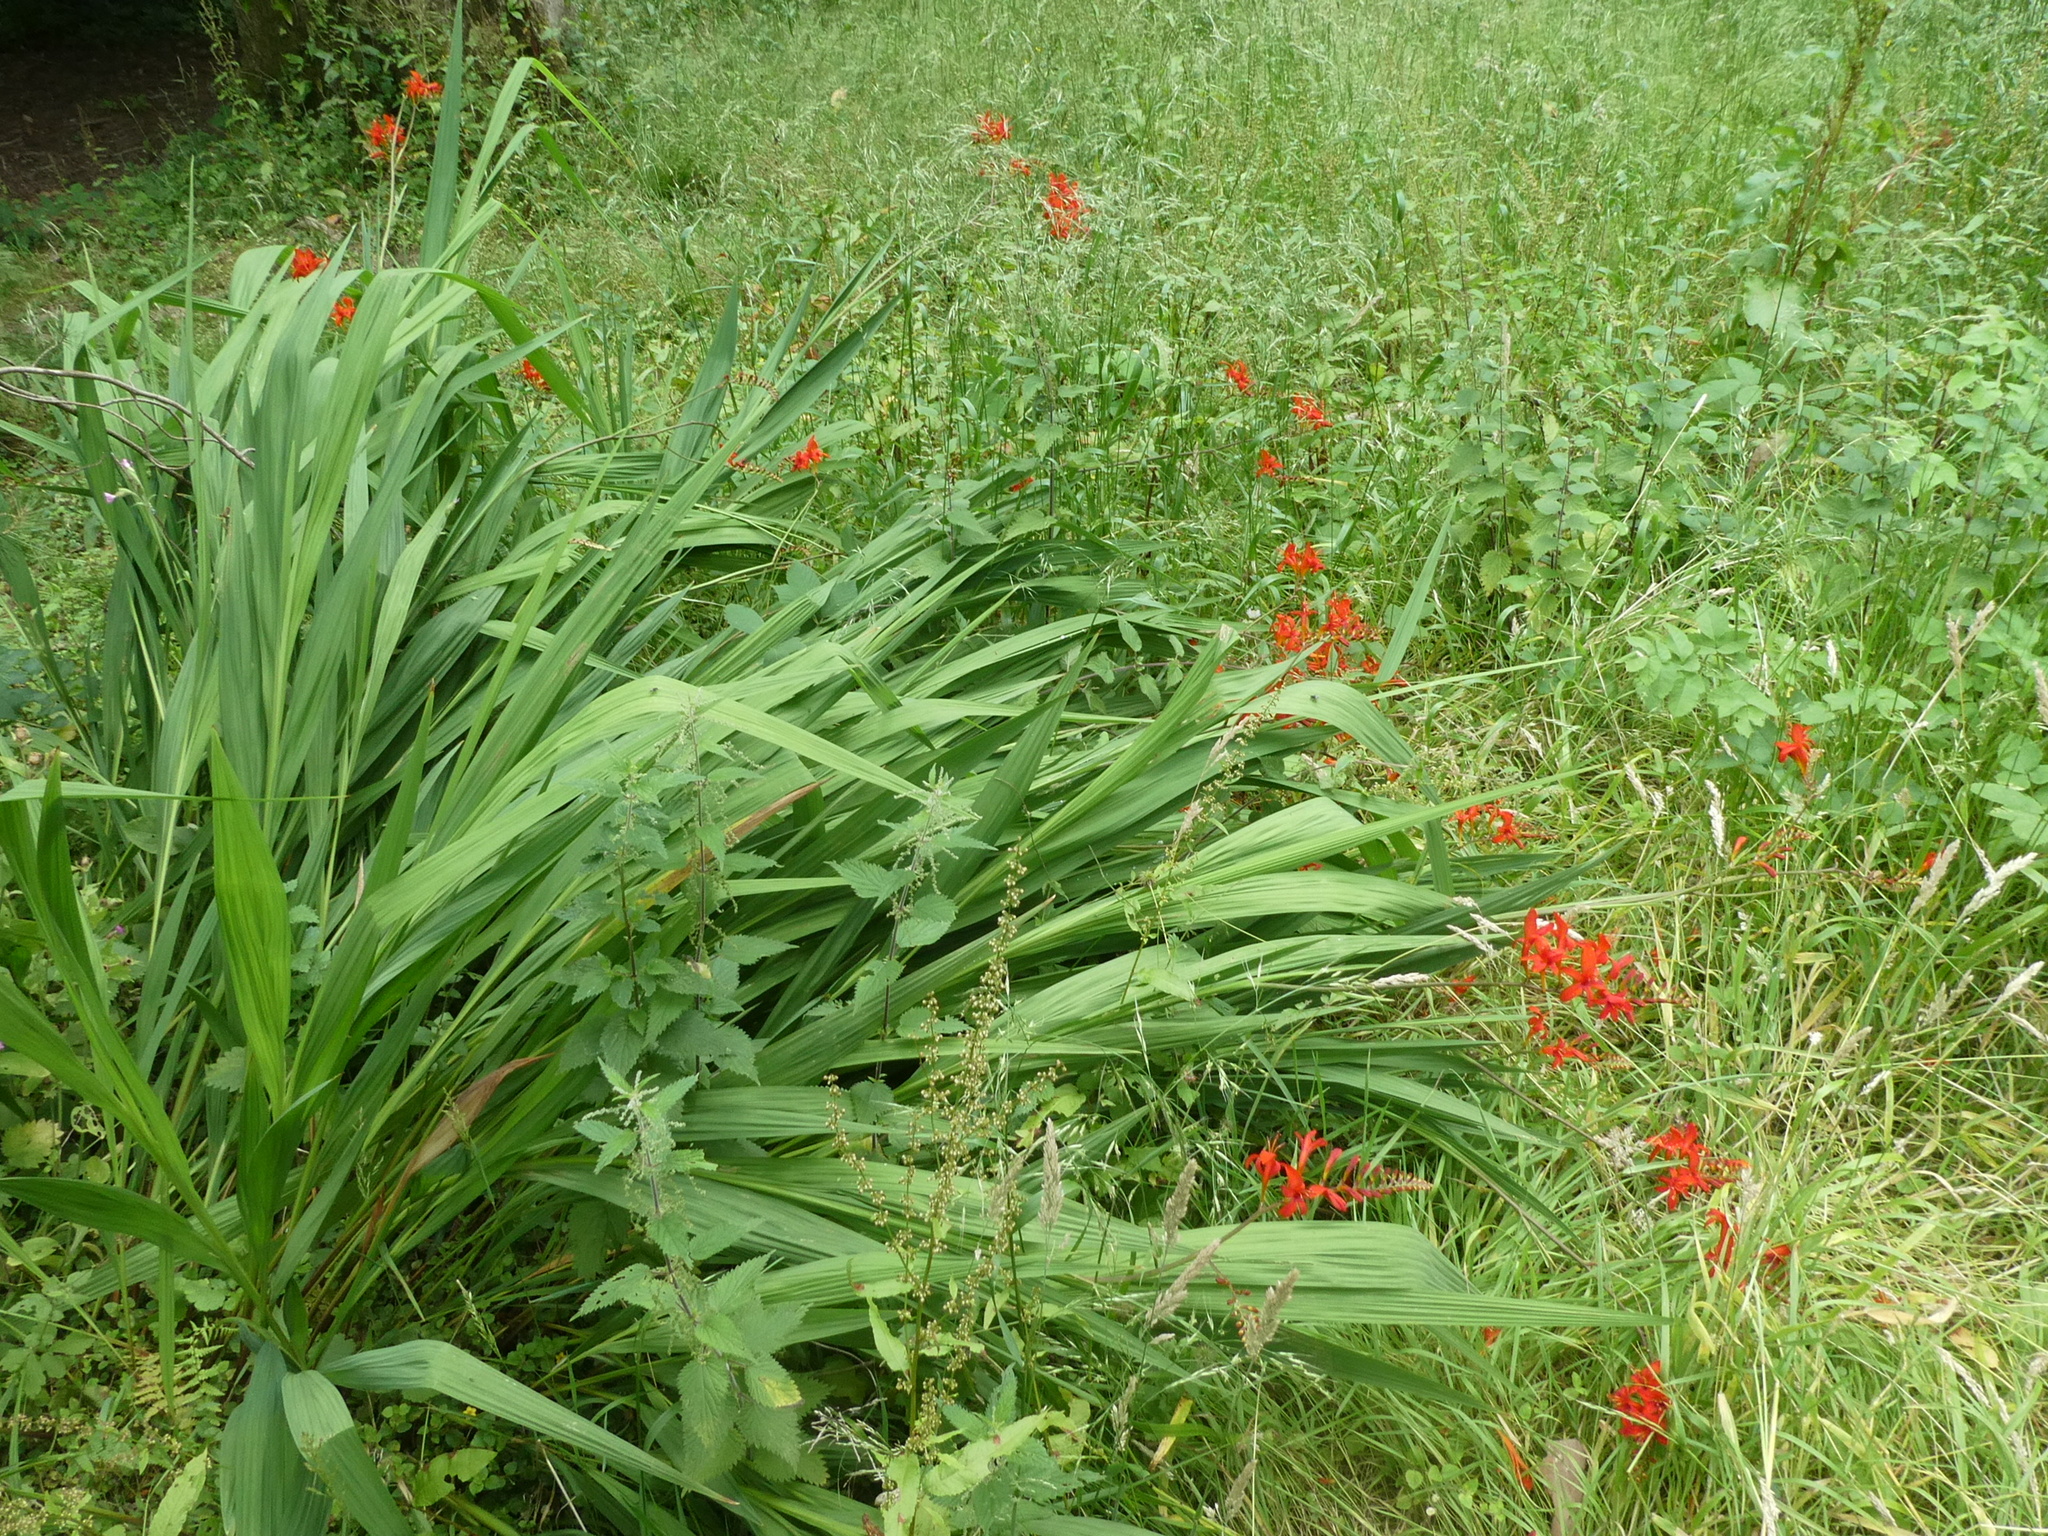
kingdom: Plantae
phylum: Tracheophyta
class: Liliopsida
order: Asparagales
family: Iridaceae
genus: Crocosmia
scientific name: Crocosmia
